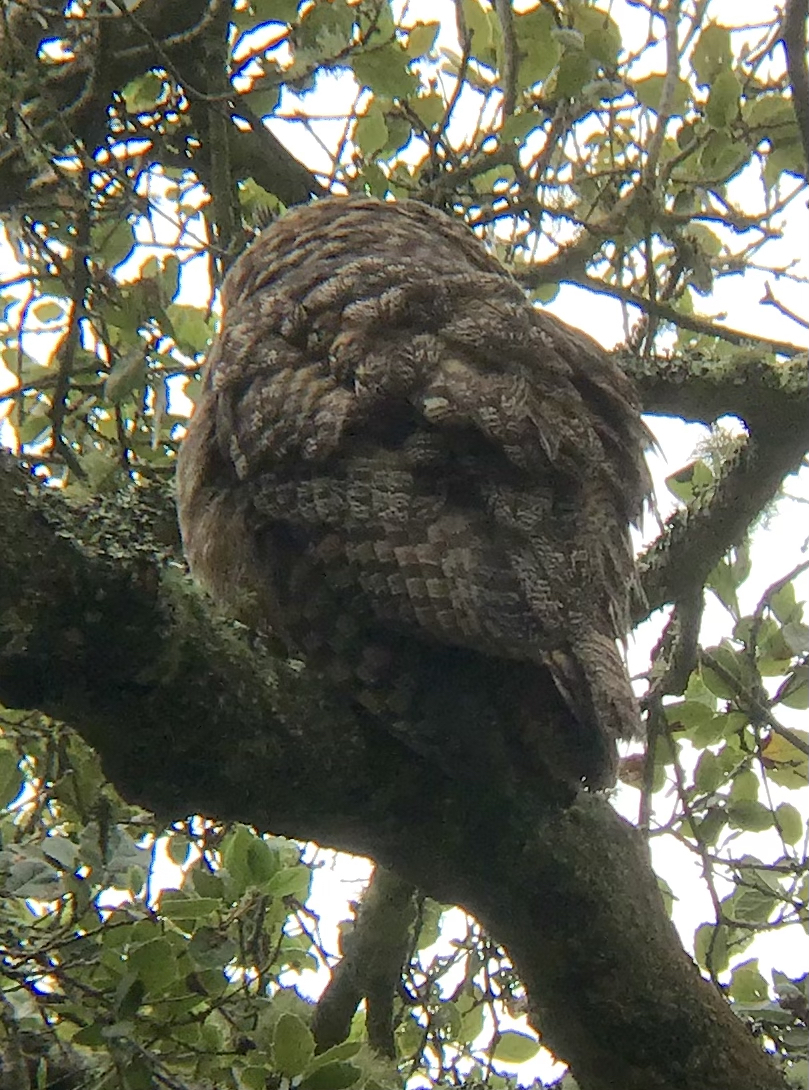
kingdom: Animalia
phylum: Chordata
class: Aves
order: Strigiformes
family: Strigidae
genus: Bubo
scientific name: Bubo virginianus
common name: Great horned owl
